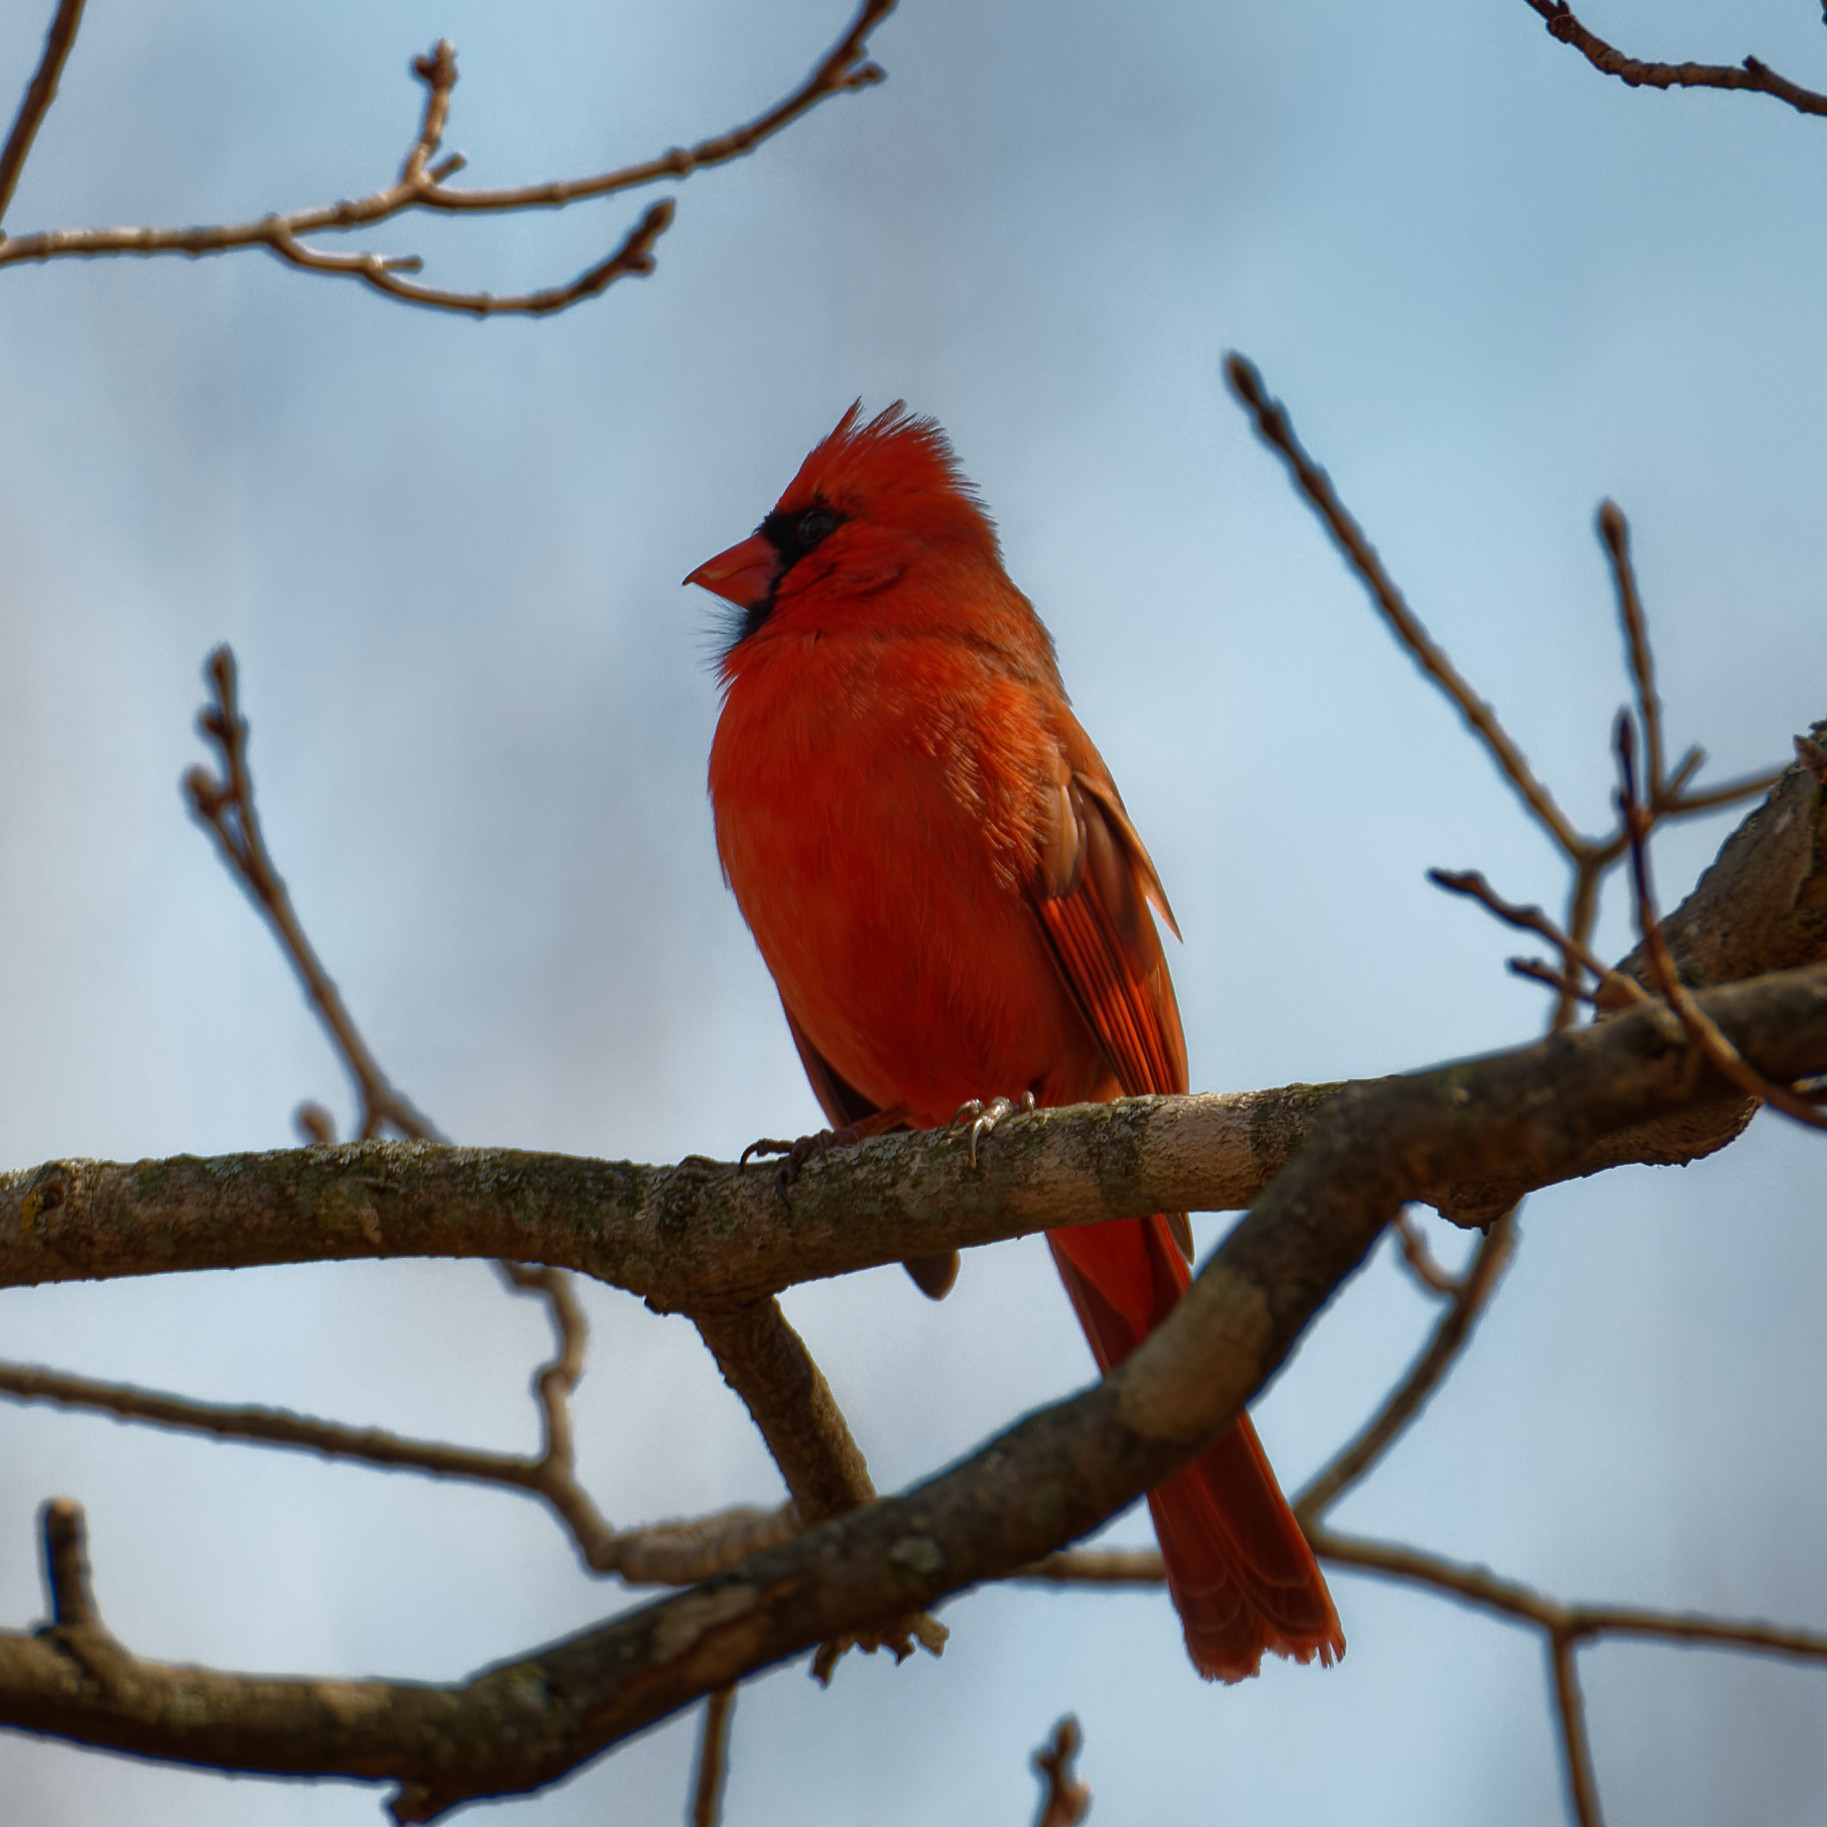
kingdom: Animalia
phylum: Chordata
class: Aves
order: Passeriformes
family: Cardinalidae
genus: Cardinalis
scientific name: Cardinalis cardinalis
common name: Northern cardinal
